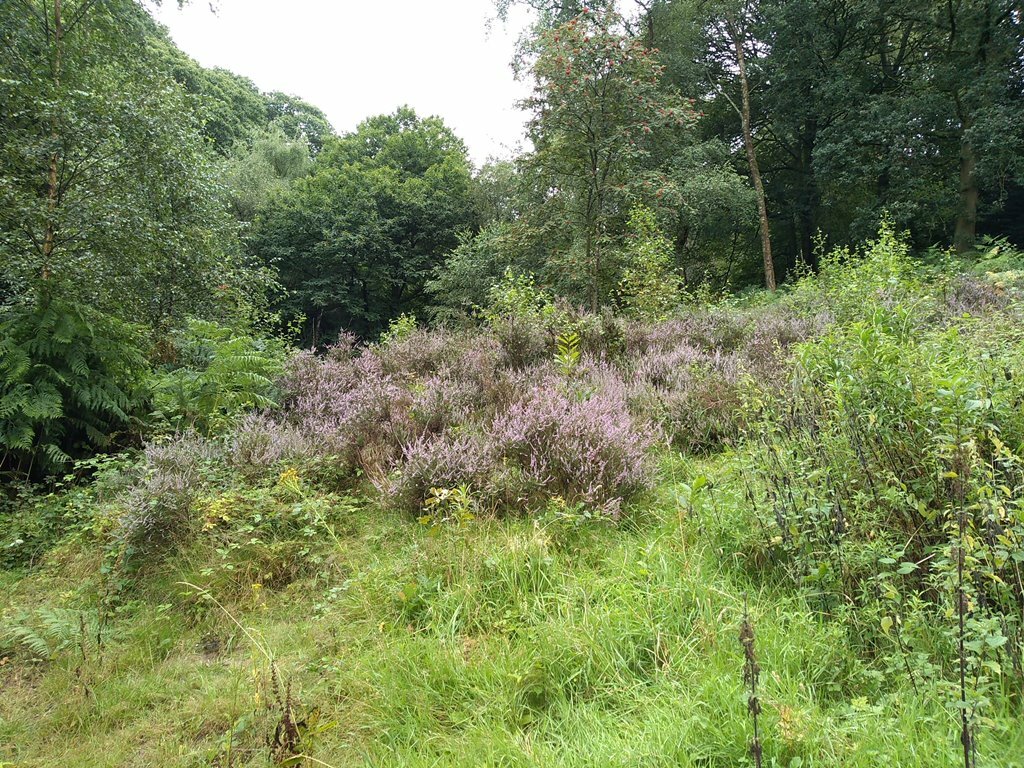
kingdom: Plantae
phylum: Tracheophyta
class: Magnoliopsida
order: Ericales
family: Ericaceae
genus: Calluna
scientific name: Calluna vulgaris
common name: Heather
